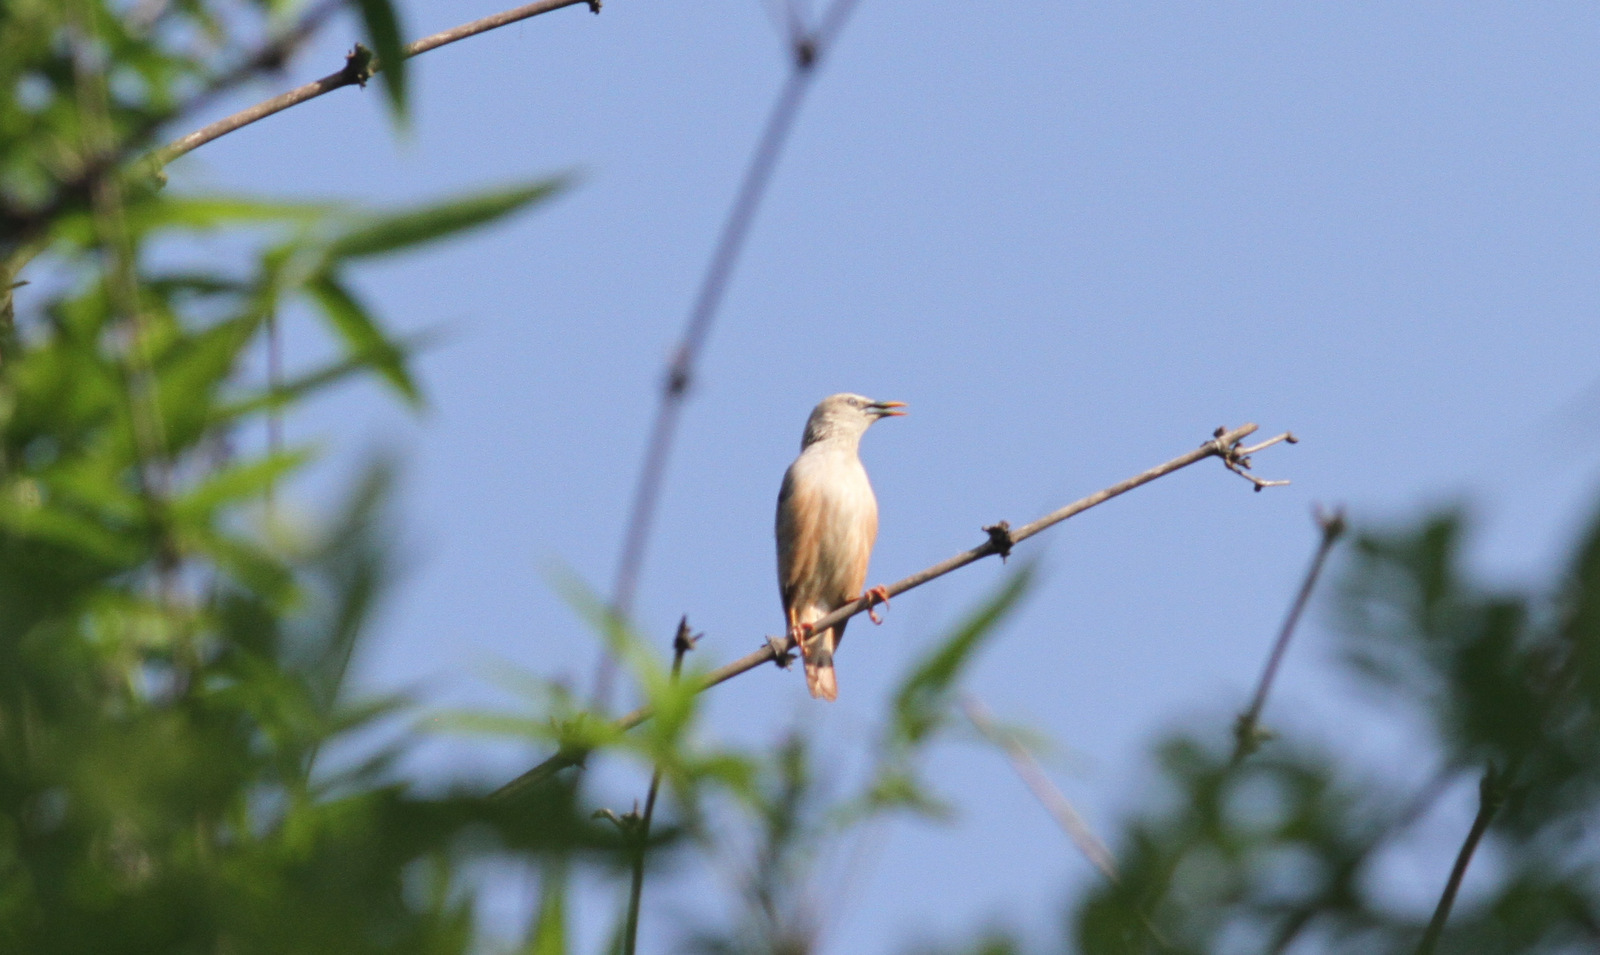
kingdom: Animalia
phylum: Chordata
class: Aves
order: Passeriformes
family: Sturnidae
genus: Sturnia
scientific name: Sturnia malabarica
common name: Chestnut-tailed starling
